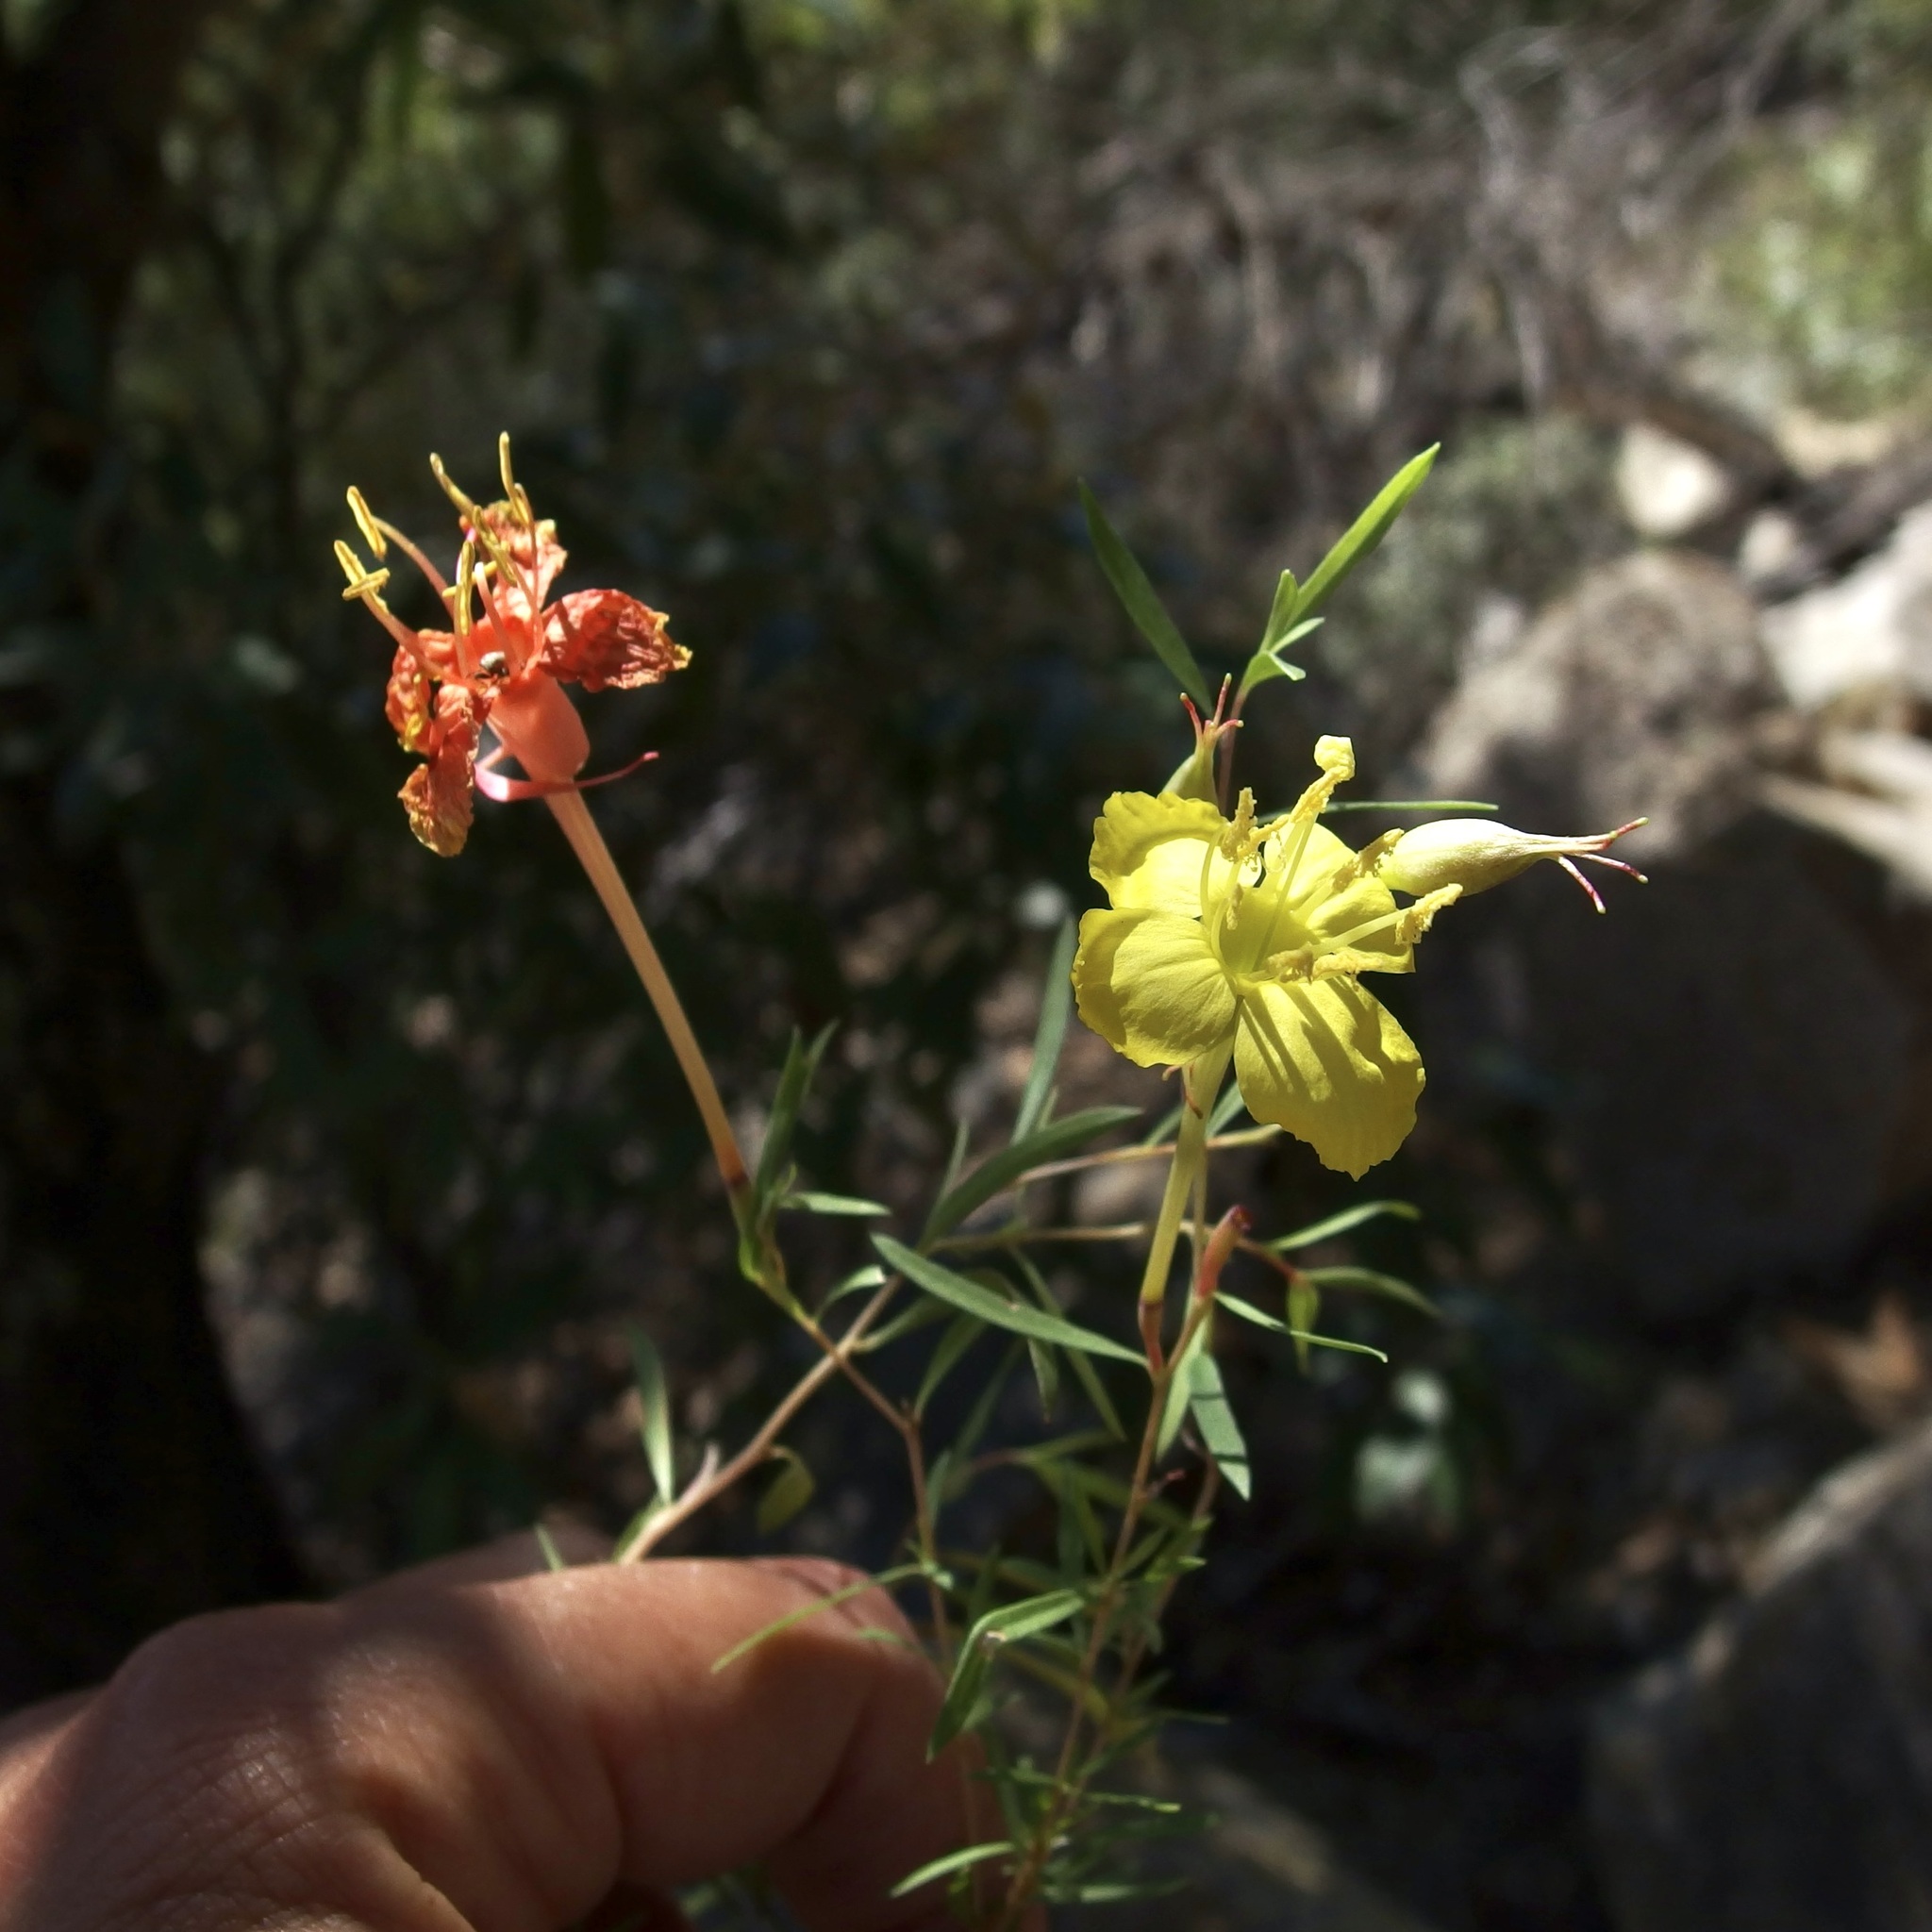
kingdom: Plantae
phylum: Tracheophyta
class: Magnoliopsida
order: Myrtales
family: Onagraceae
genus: Oenothera
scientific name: Oenothera toumeyi
